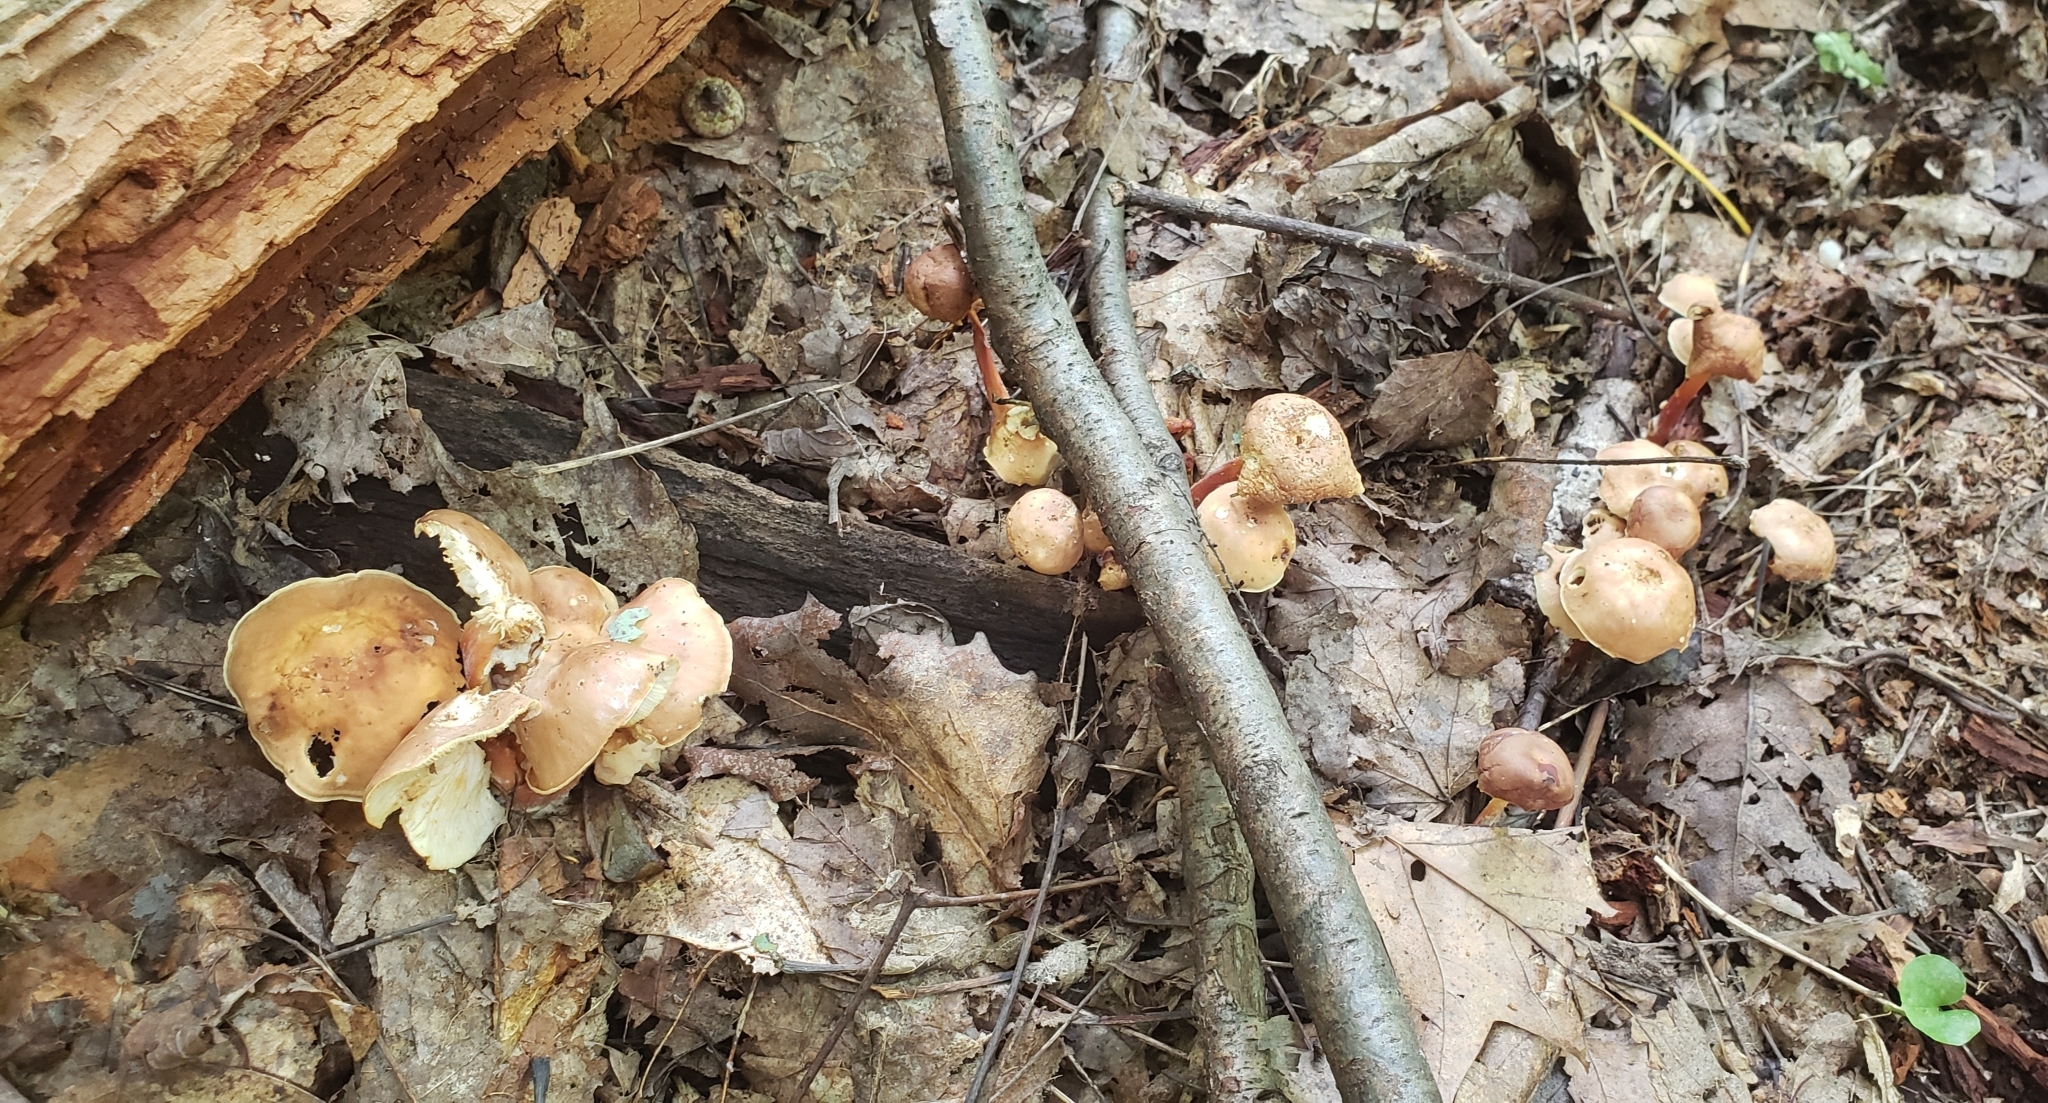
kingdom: Fungi
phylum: Basidiomycota
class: Agaricomycetes
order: Agaricales
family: Omphalotaceae
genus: Gymnopus
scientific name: Gymnopus dryophilus
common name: Penny top
